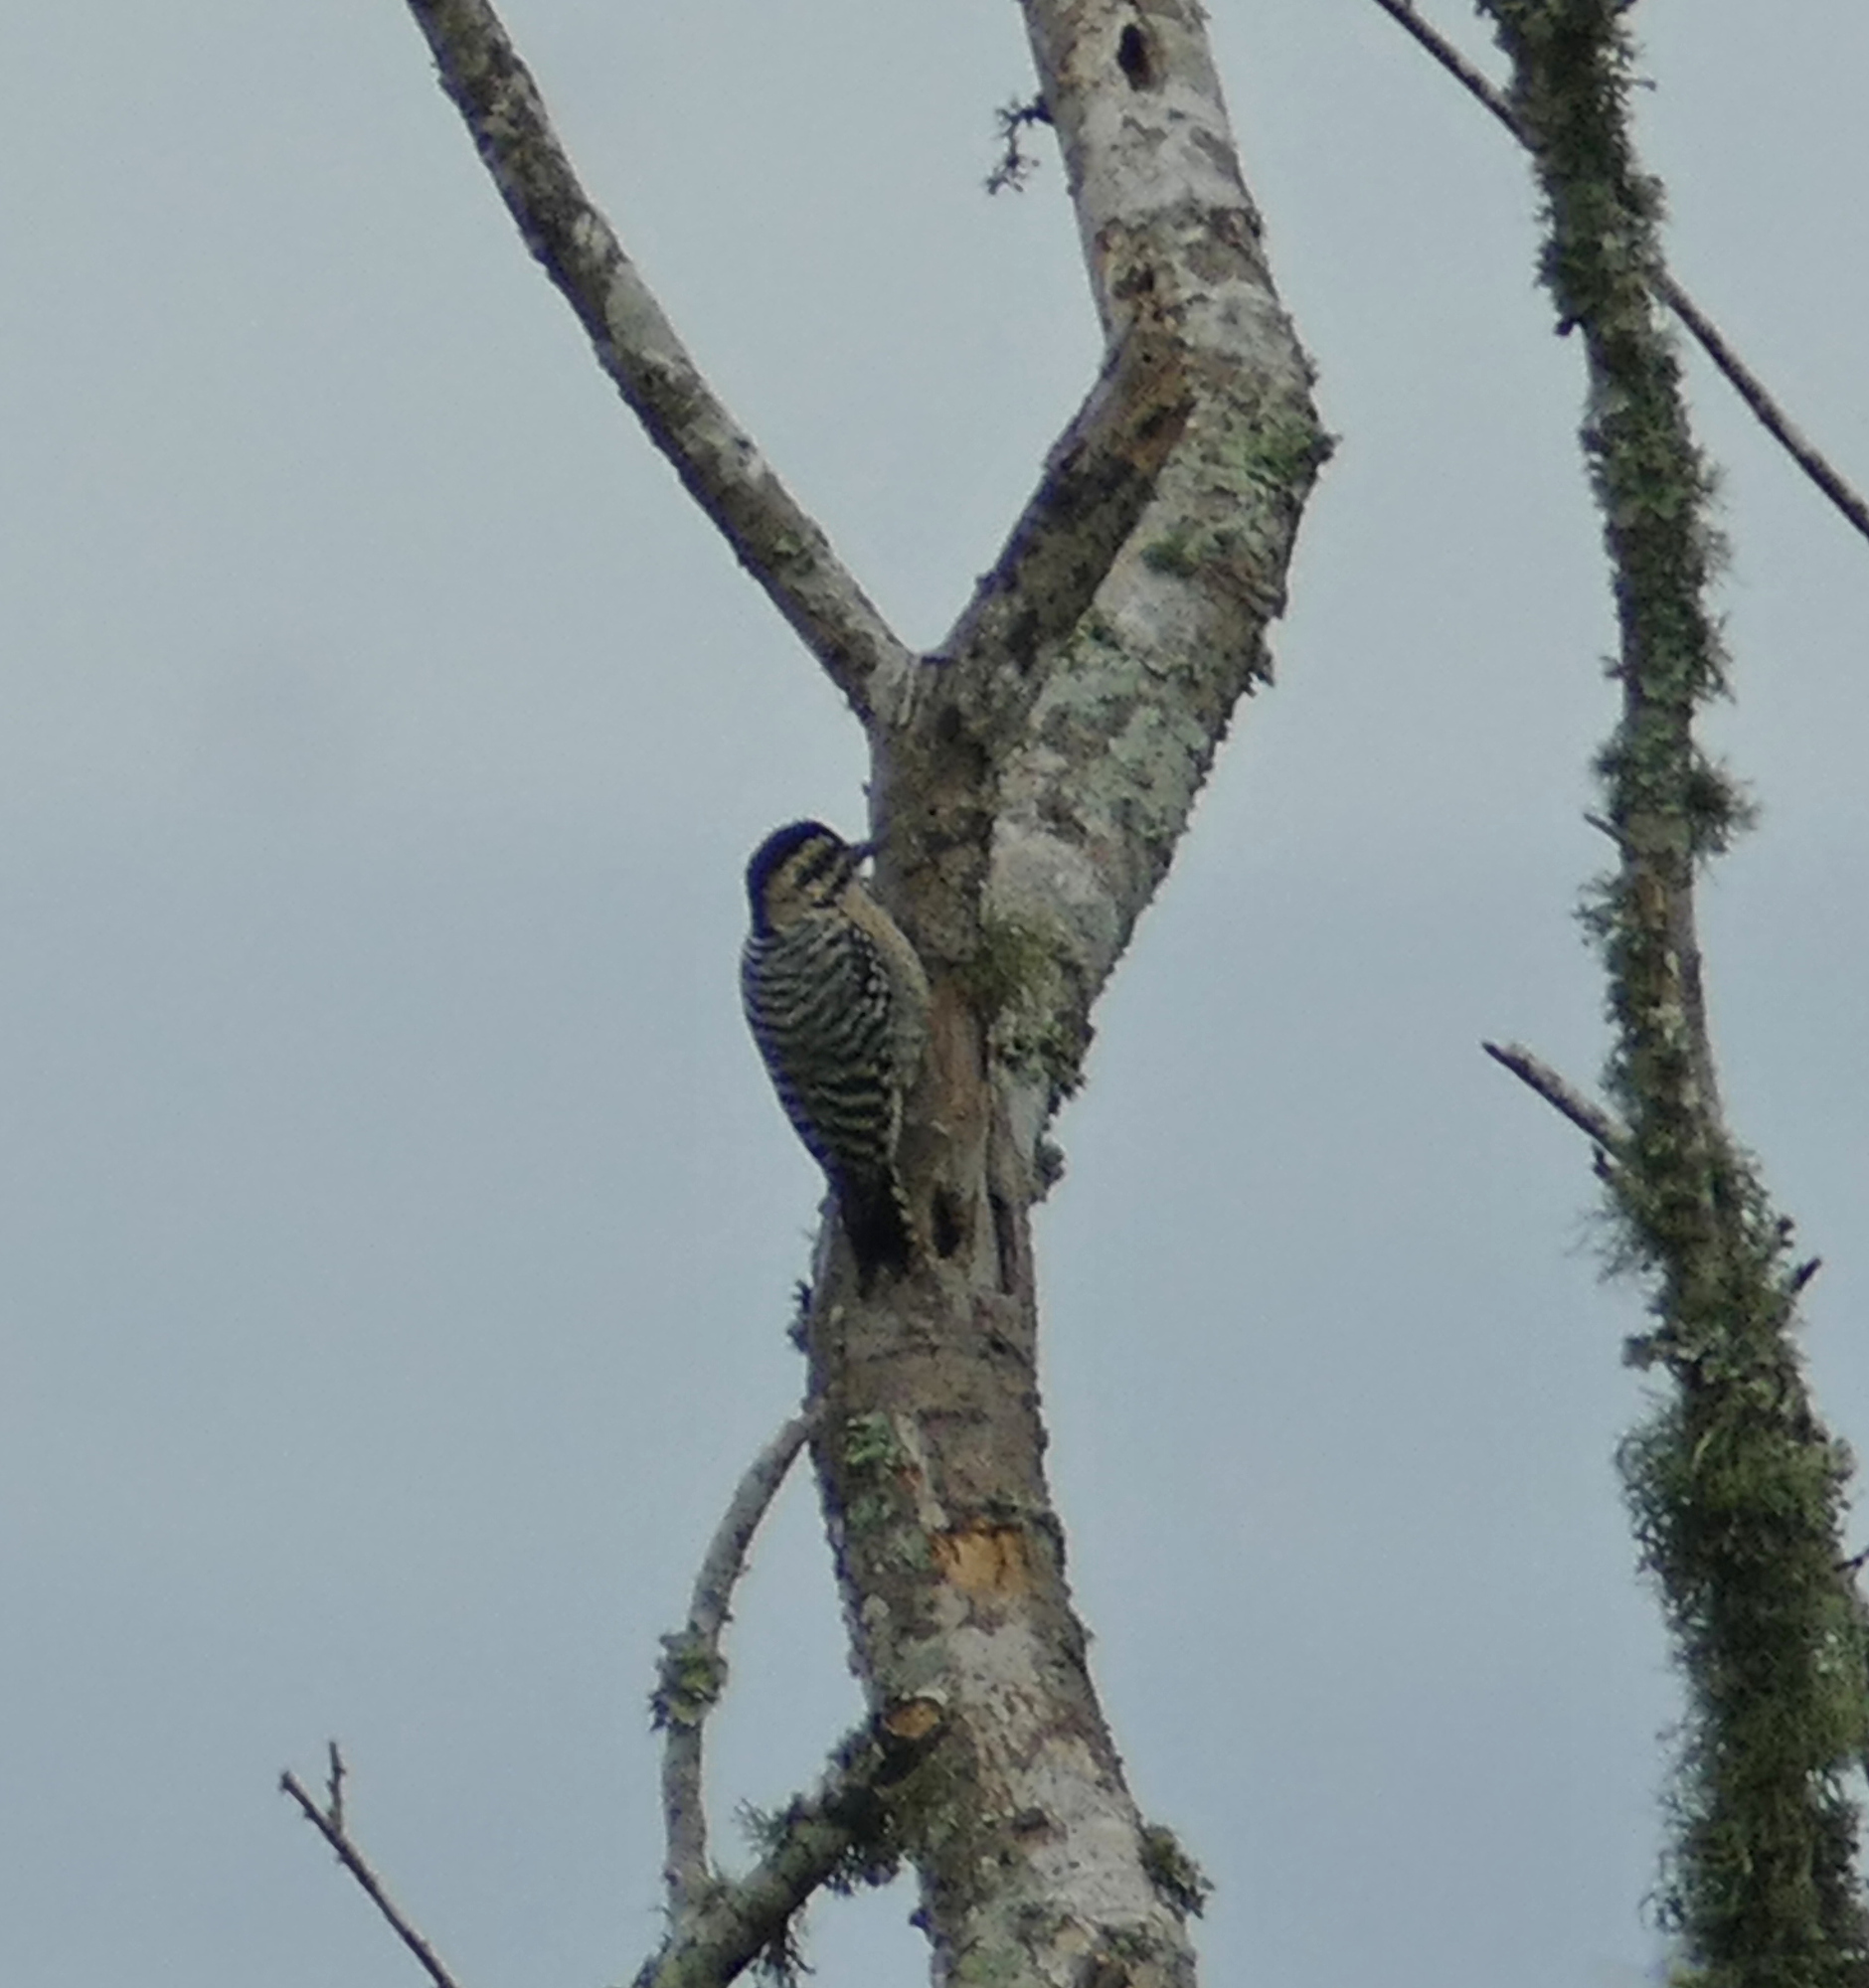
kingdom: Animalia
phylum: Chordata
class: Aves
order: Piciformes
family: Picidae
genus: Dryobates
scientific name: Dryobates scalaris
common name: Ladder-backed woodpecker
